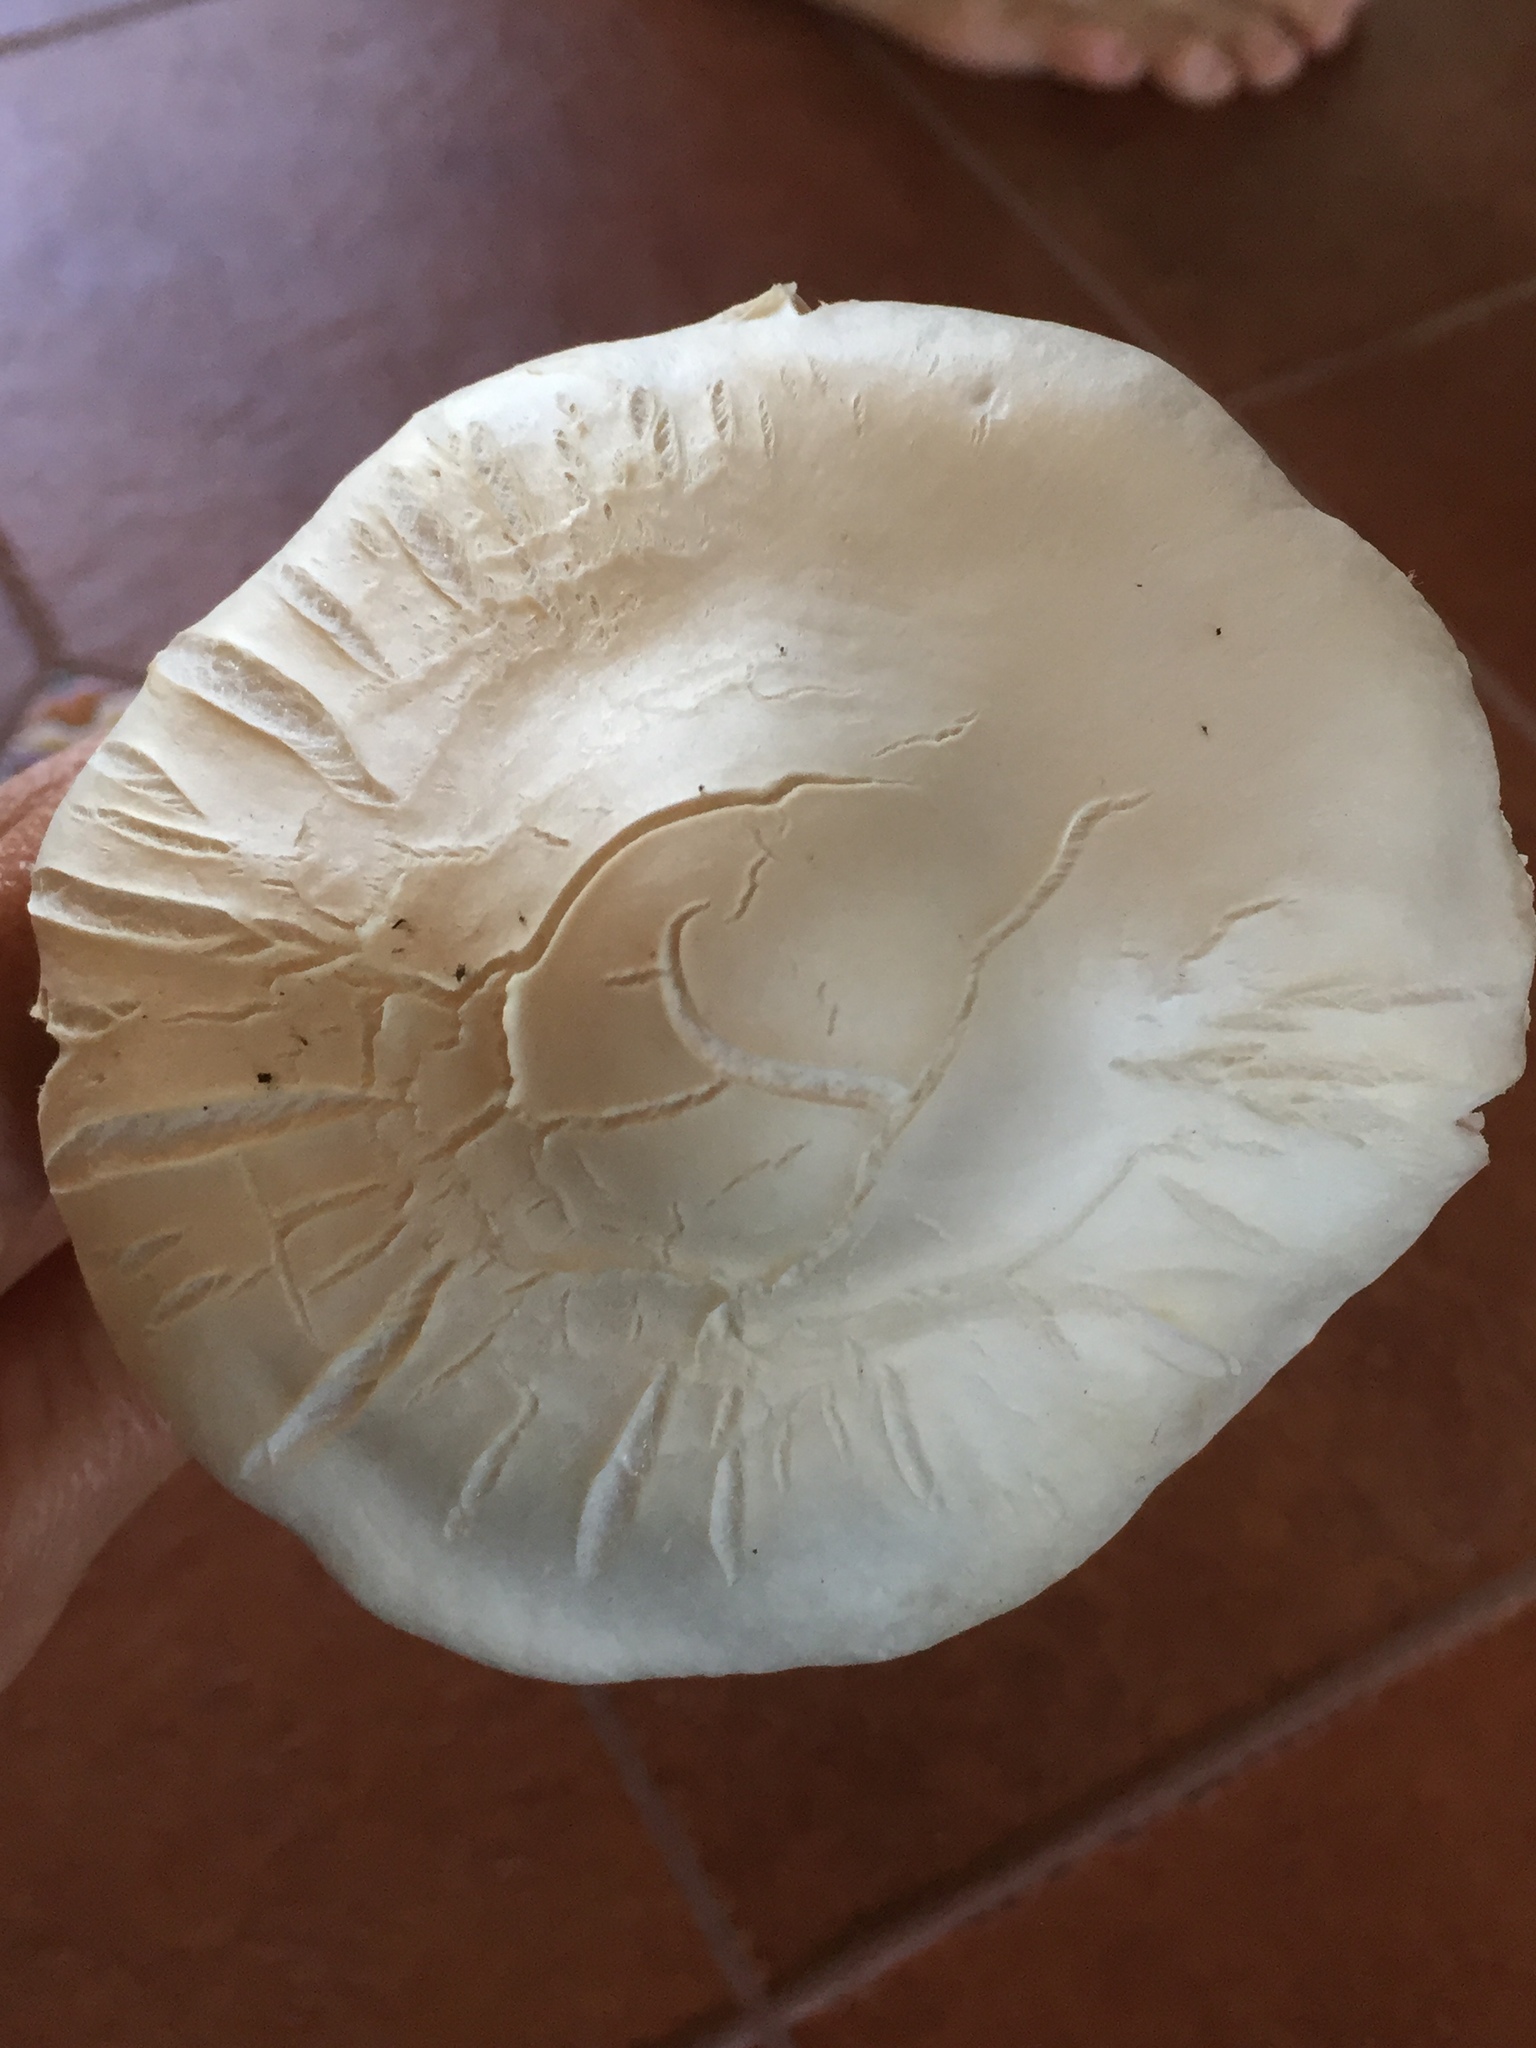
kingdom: Fungi
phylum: Basidiomycota
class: Agaricomycetes
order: Agaricales
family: Pluteaceae
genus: Volvopluteus
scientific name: Volvopluteus gloiocephalus
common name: Stubble rosegill
